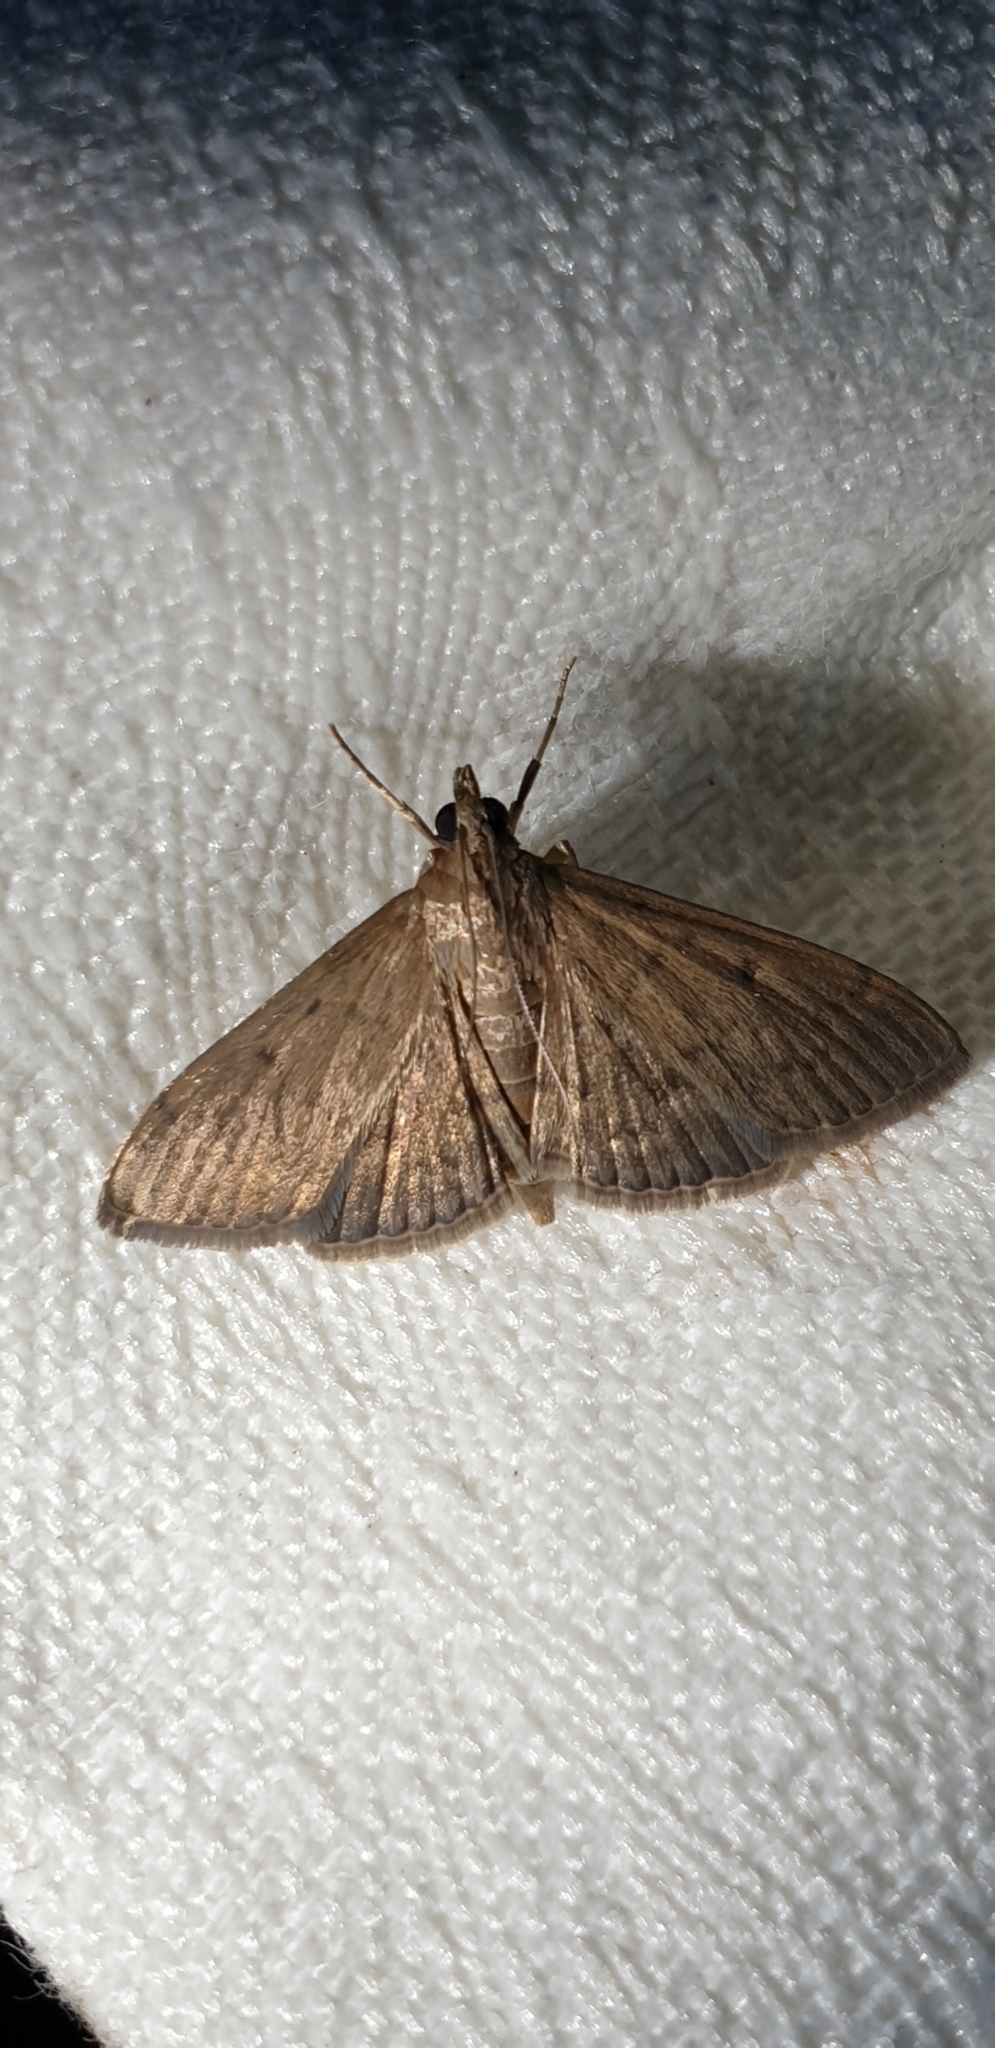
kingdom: Animalia
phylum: Arthropoda
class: Insecta
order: Lepidoptera
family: Crambidae
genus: Herpetogramma
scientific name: Herpetogramma licarsisalis
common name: Grass webworm
